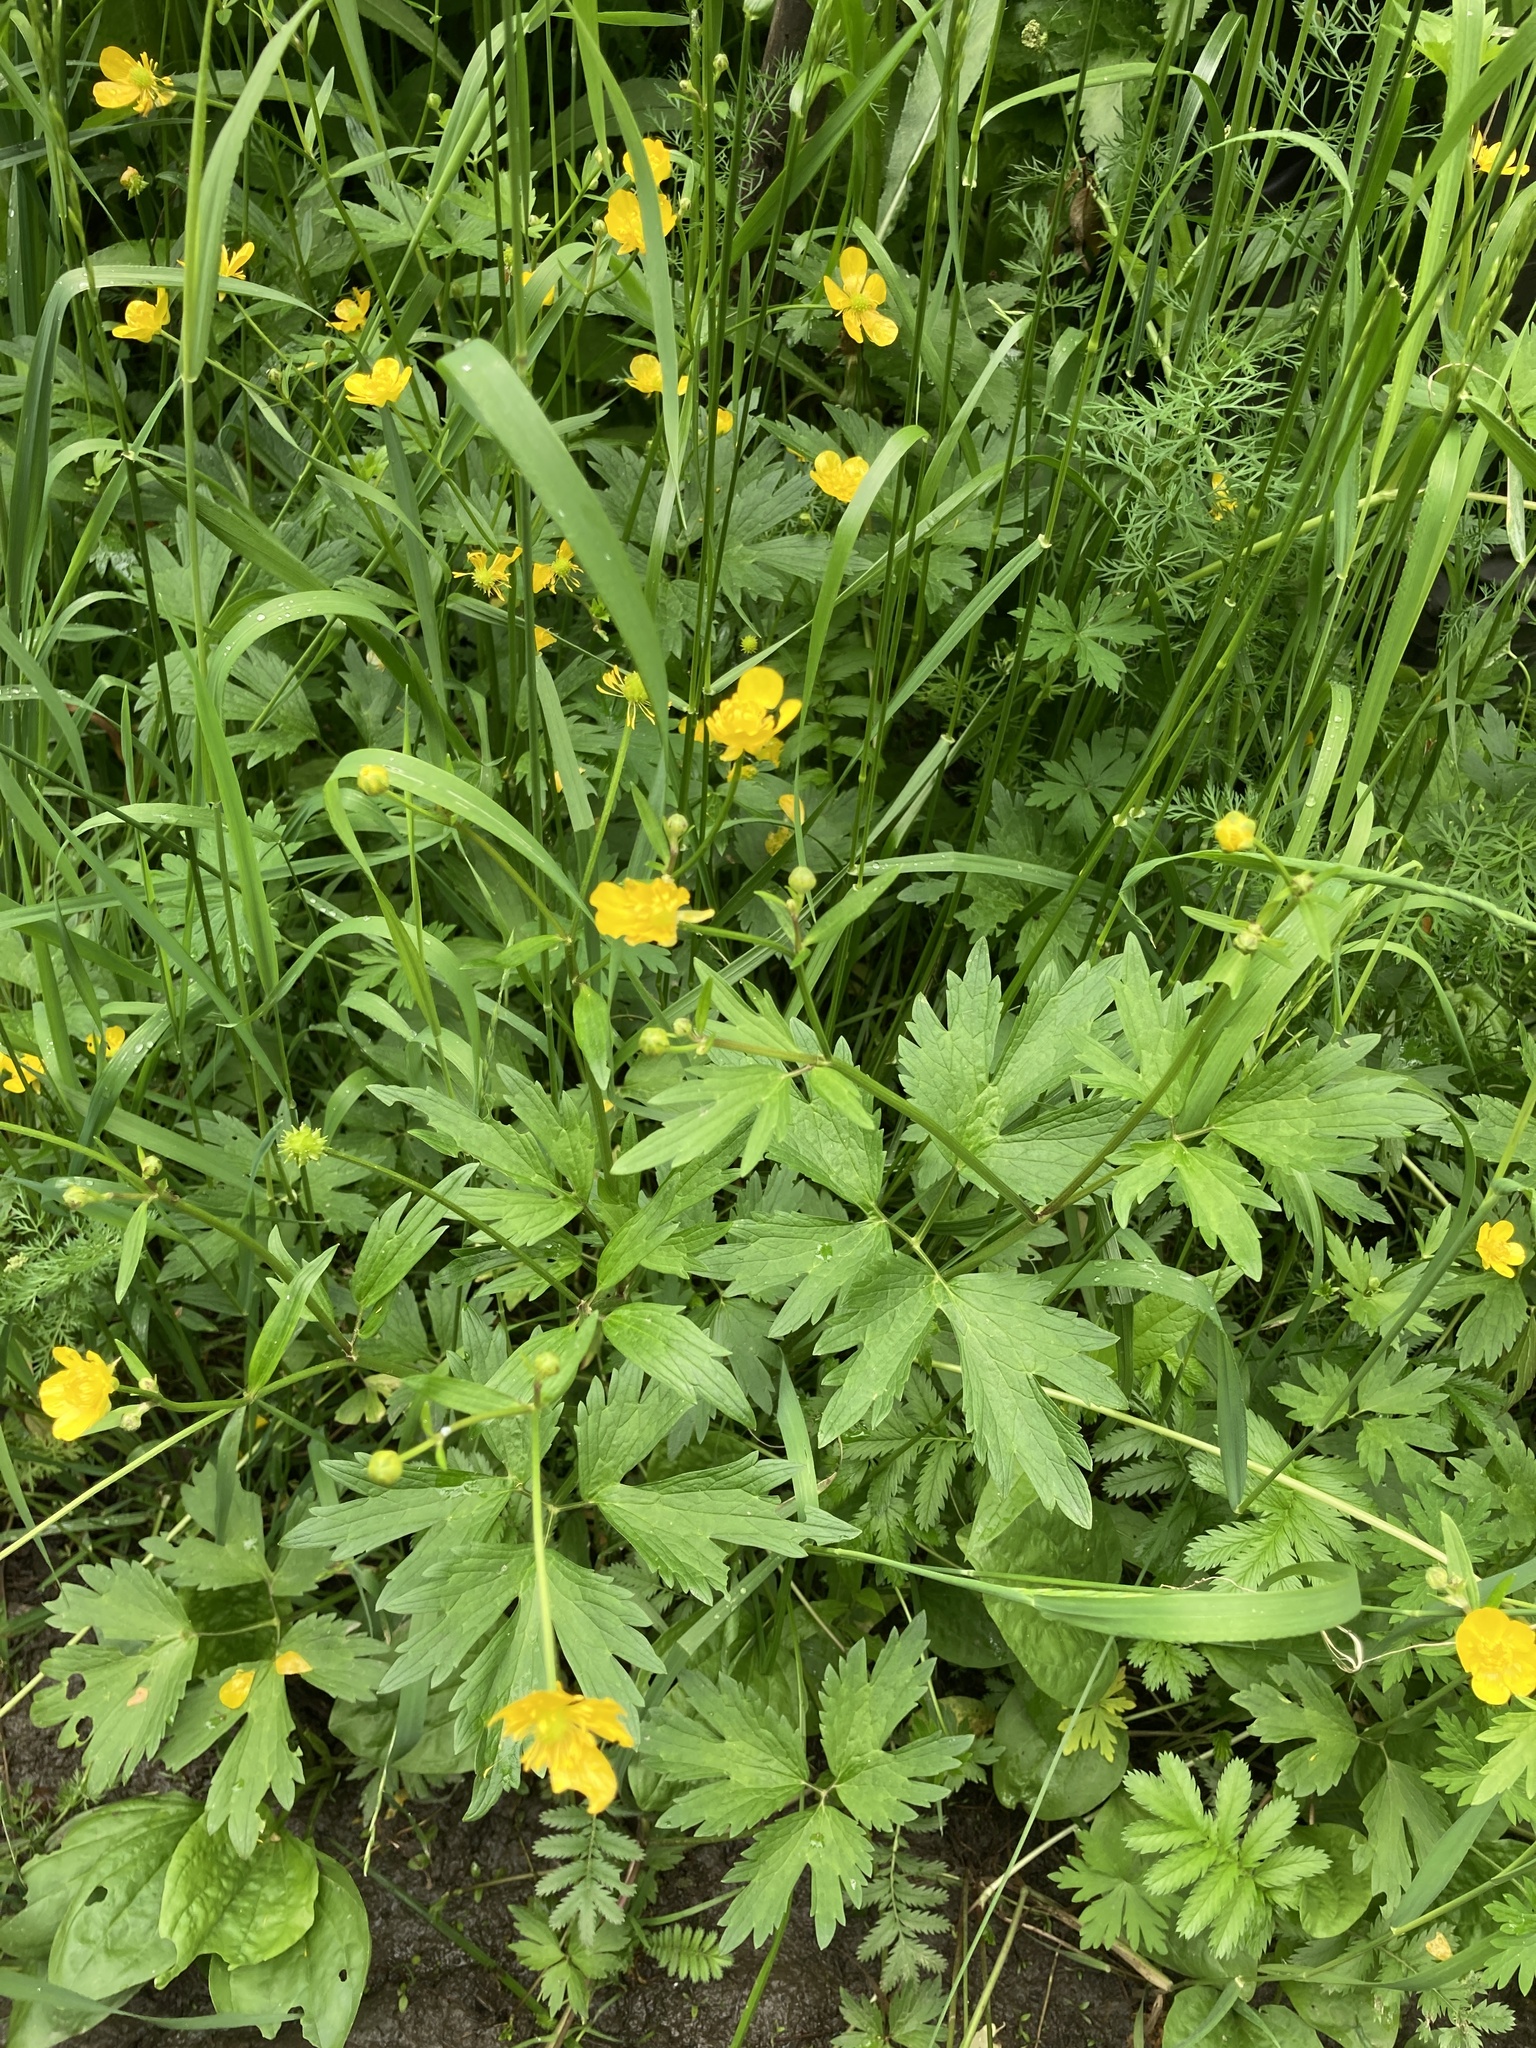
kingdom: Plantae
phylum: Tracheophyta
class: Magnoliopsida
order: Ranunculales
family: Ranunculaceae
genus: Ranunculus
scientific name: Ranunculus repens
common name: Creeping buttercup
